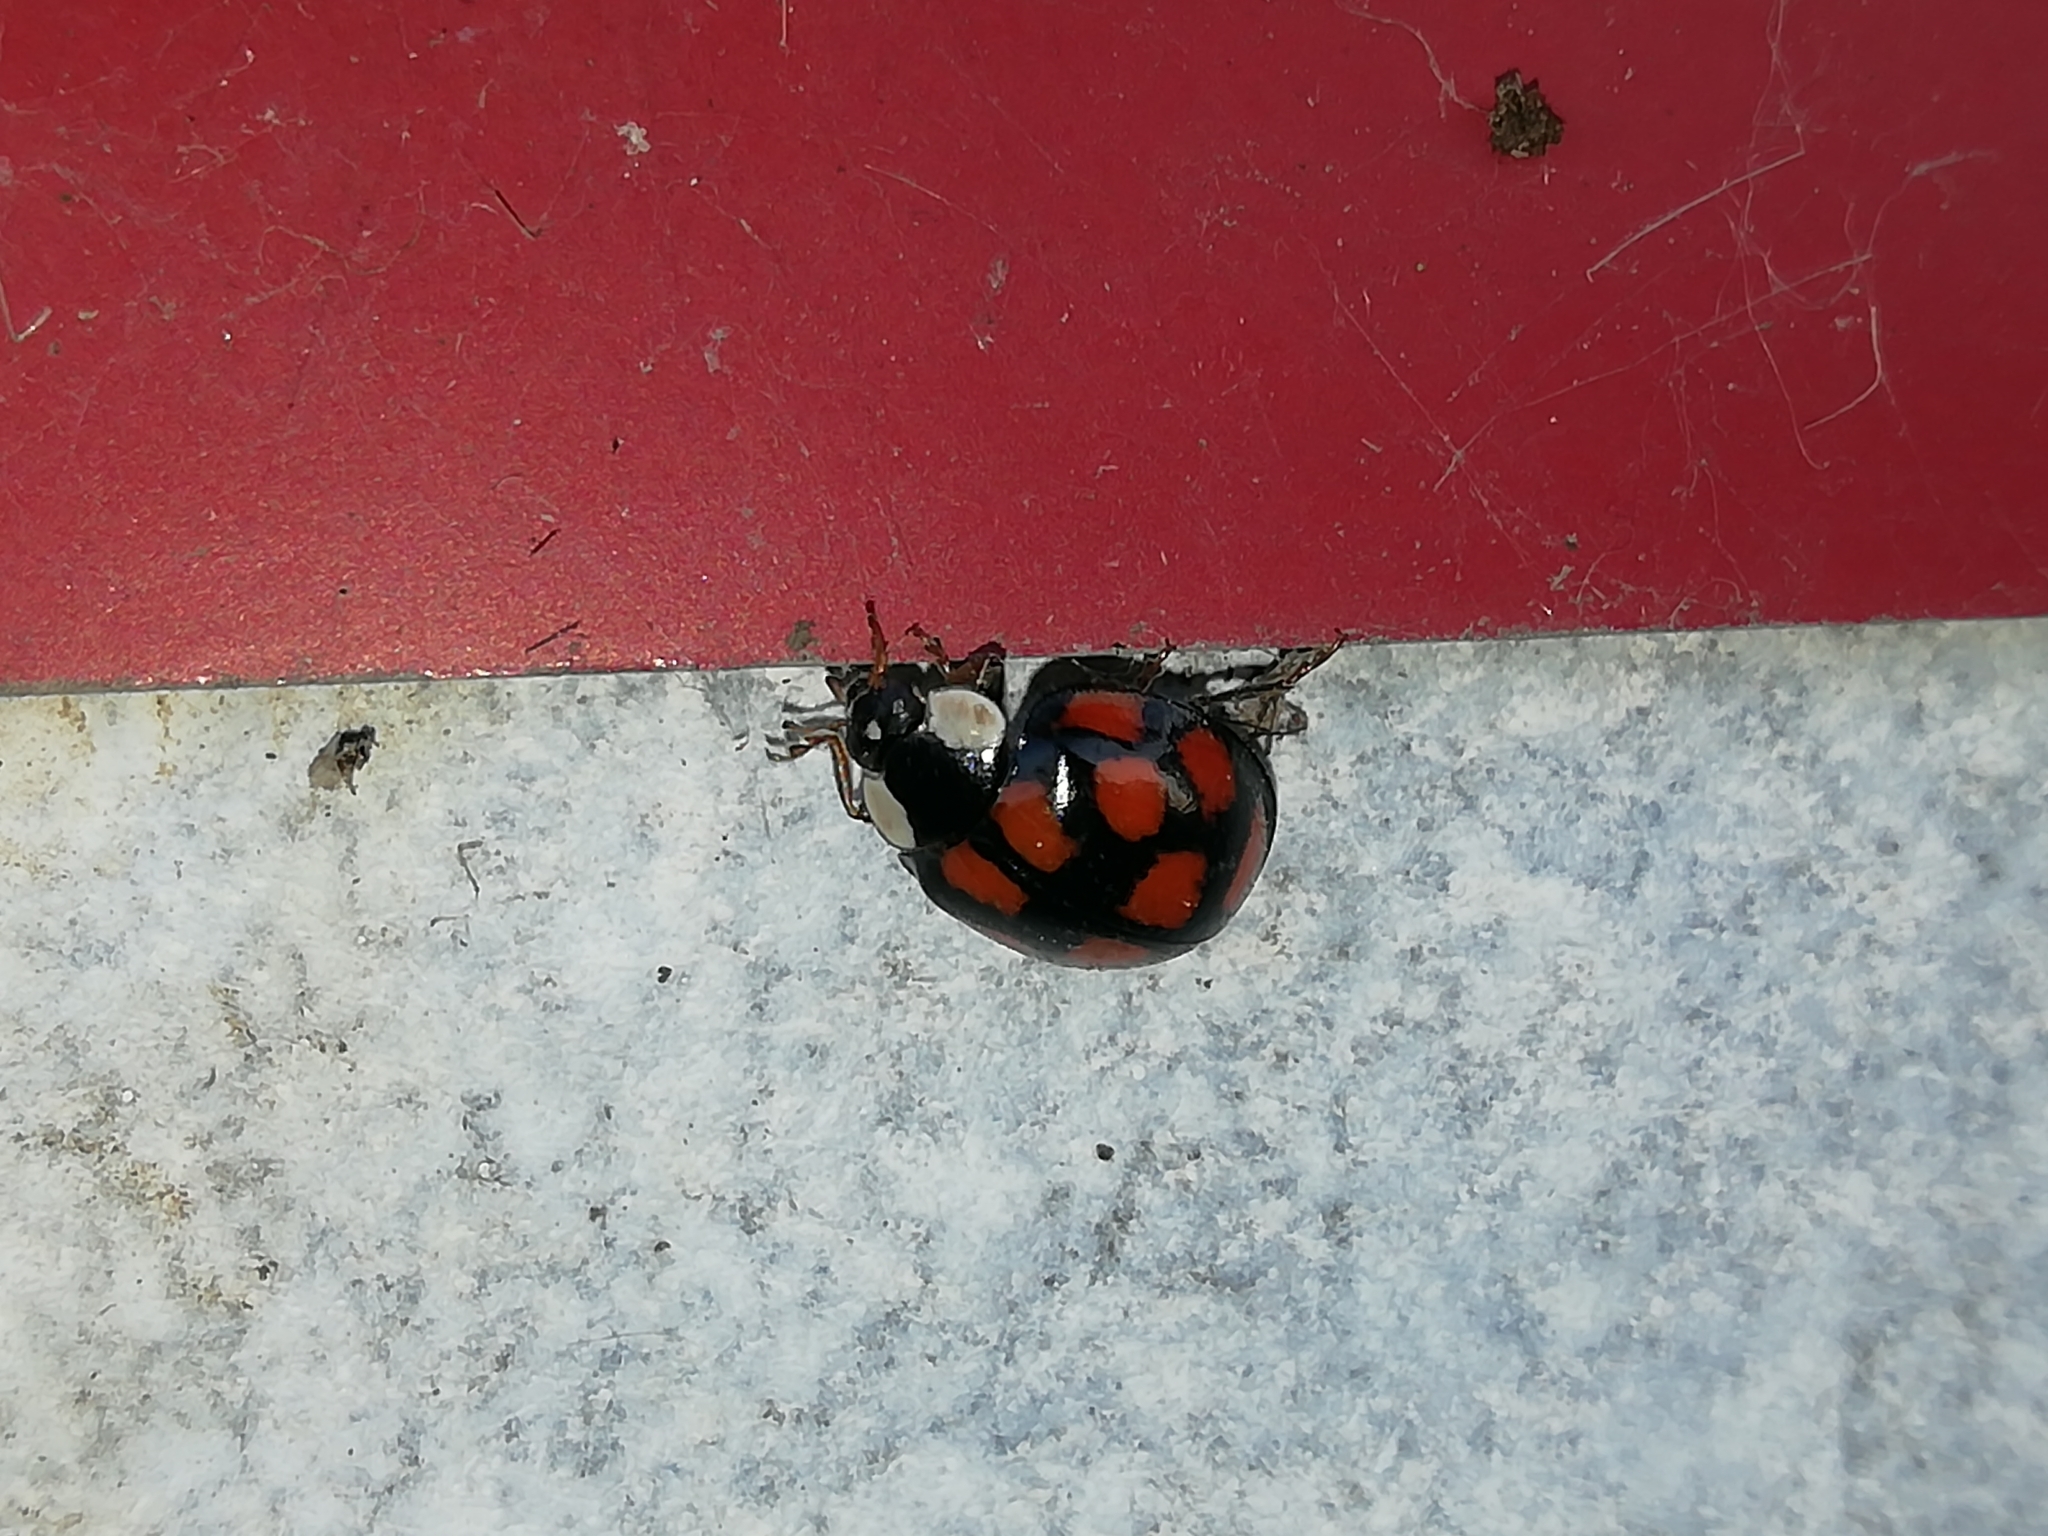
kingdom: Animalia
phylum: Arthropoda
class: Insecta
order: Coleoptera
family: Coccinellidae
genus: Harmonia
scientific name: Harmonia axyridis
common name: Harlequin ladybird
